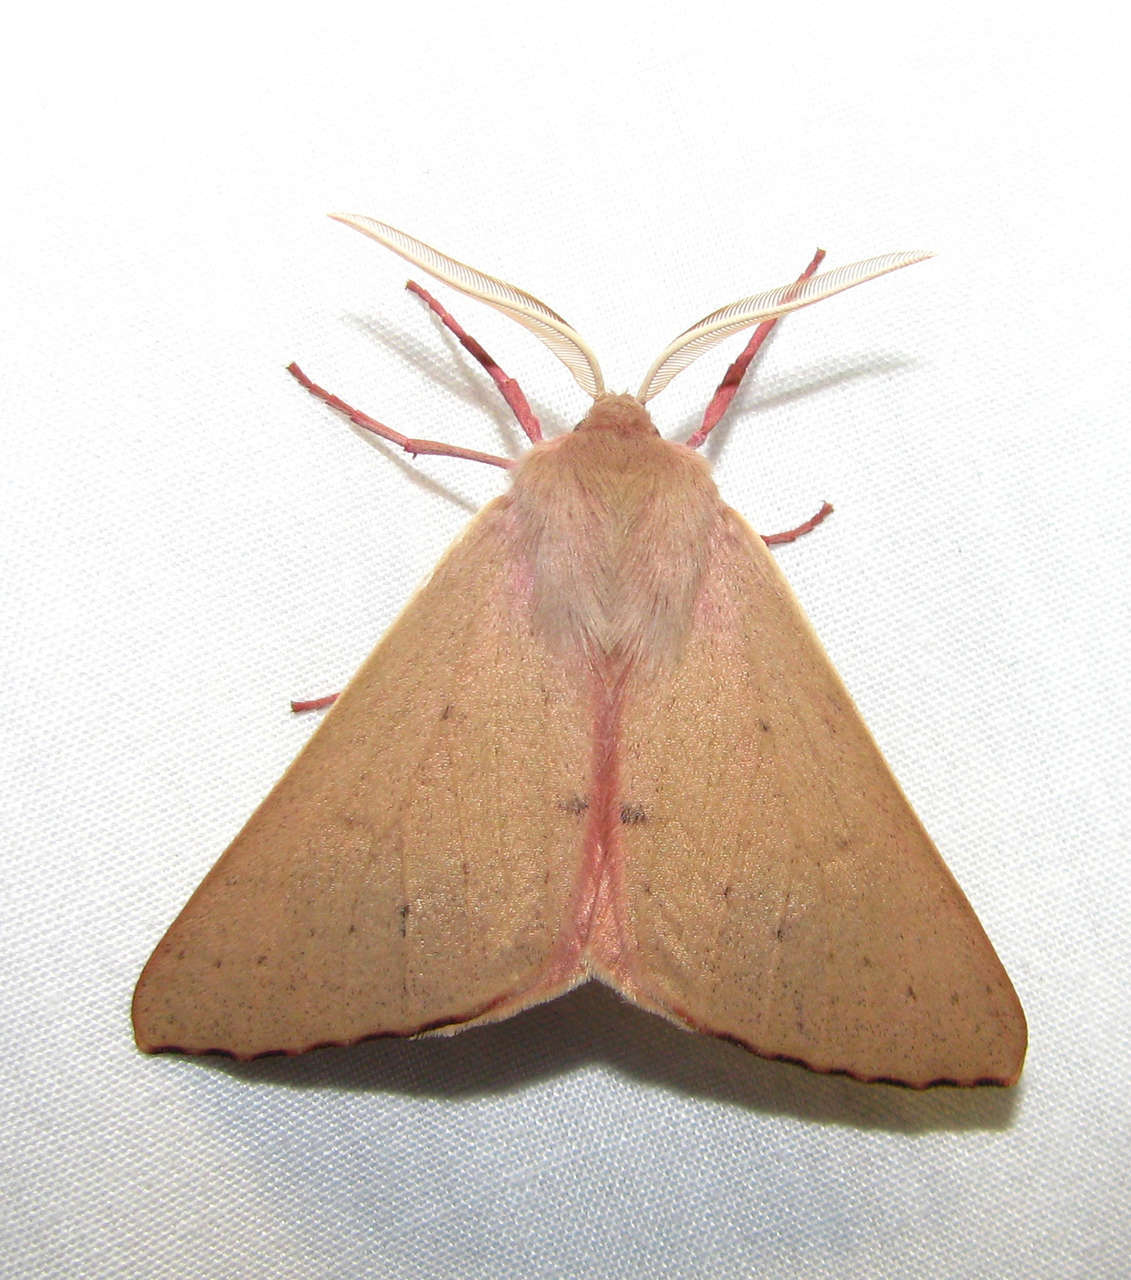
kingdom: Animalia
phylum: Arthropoda
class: Insecta
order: Lepidoptera
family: Geometridae
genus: Arhodia
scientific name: Arhodia lasiocamparia
